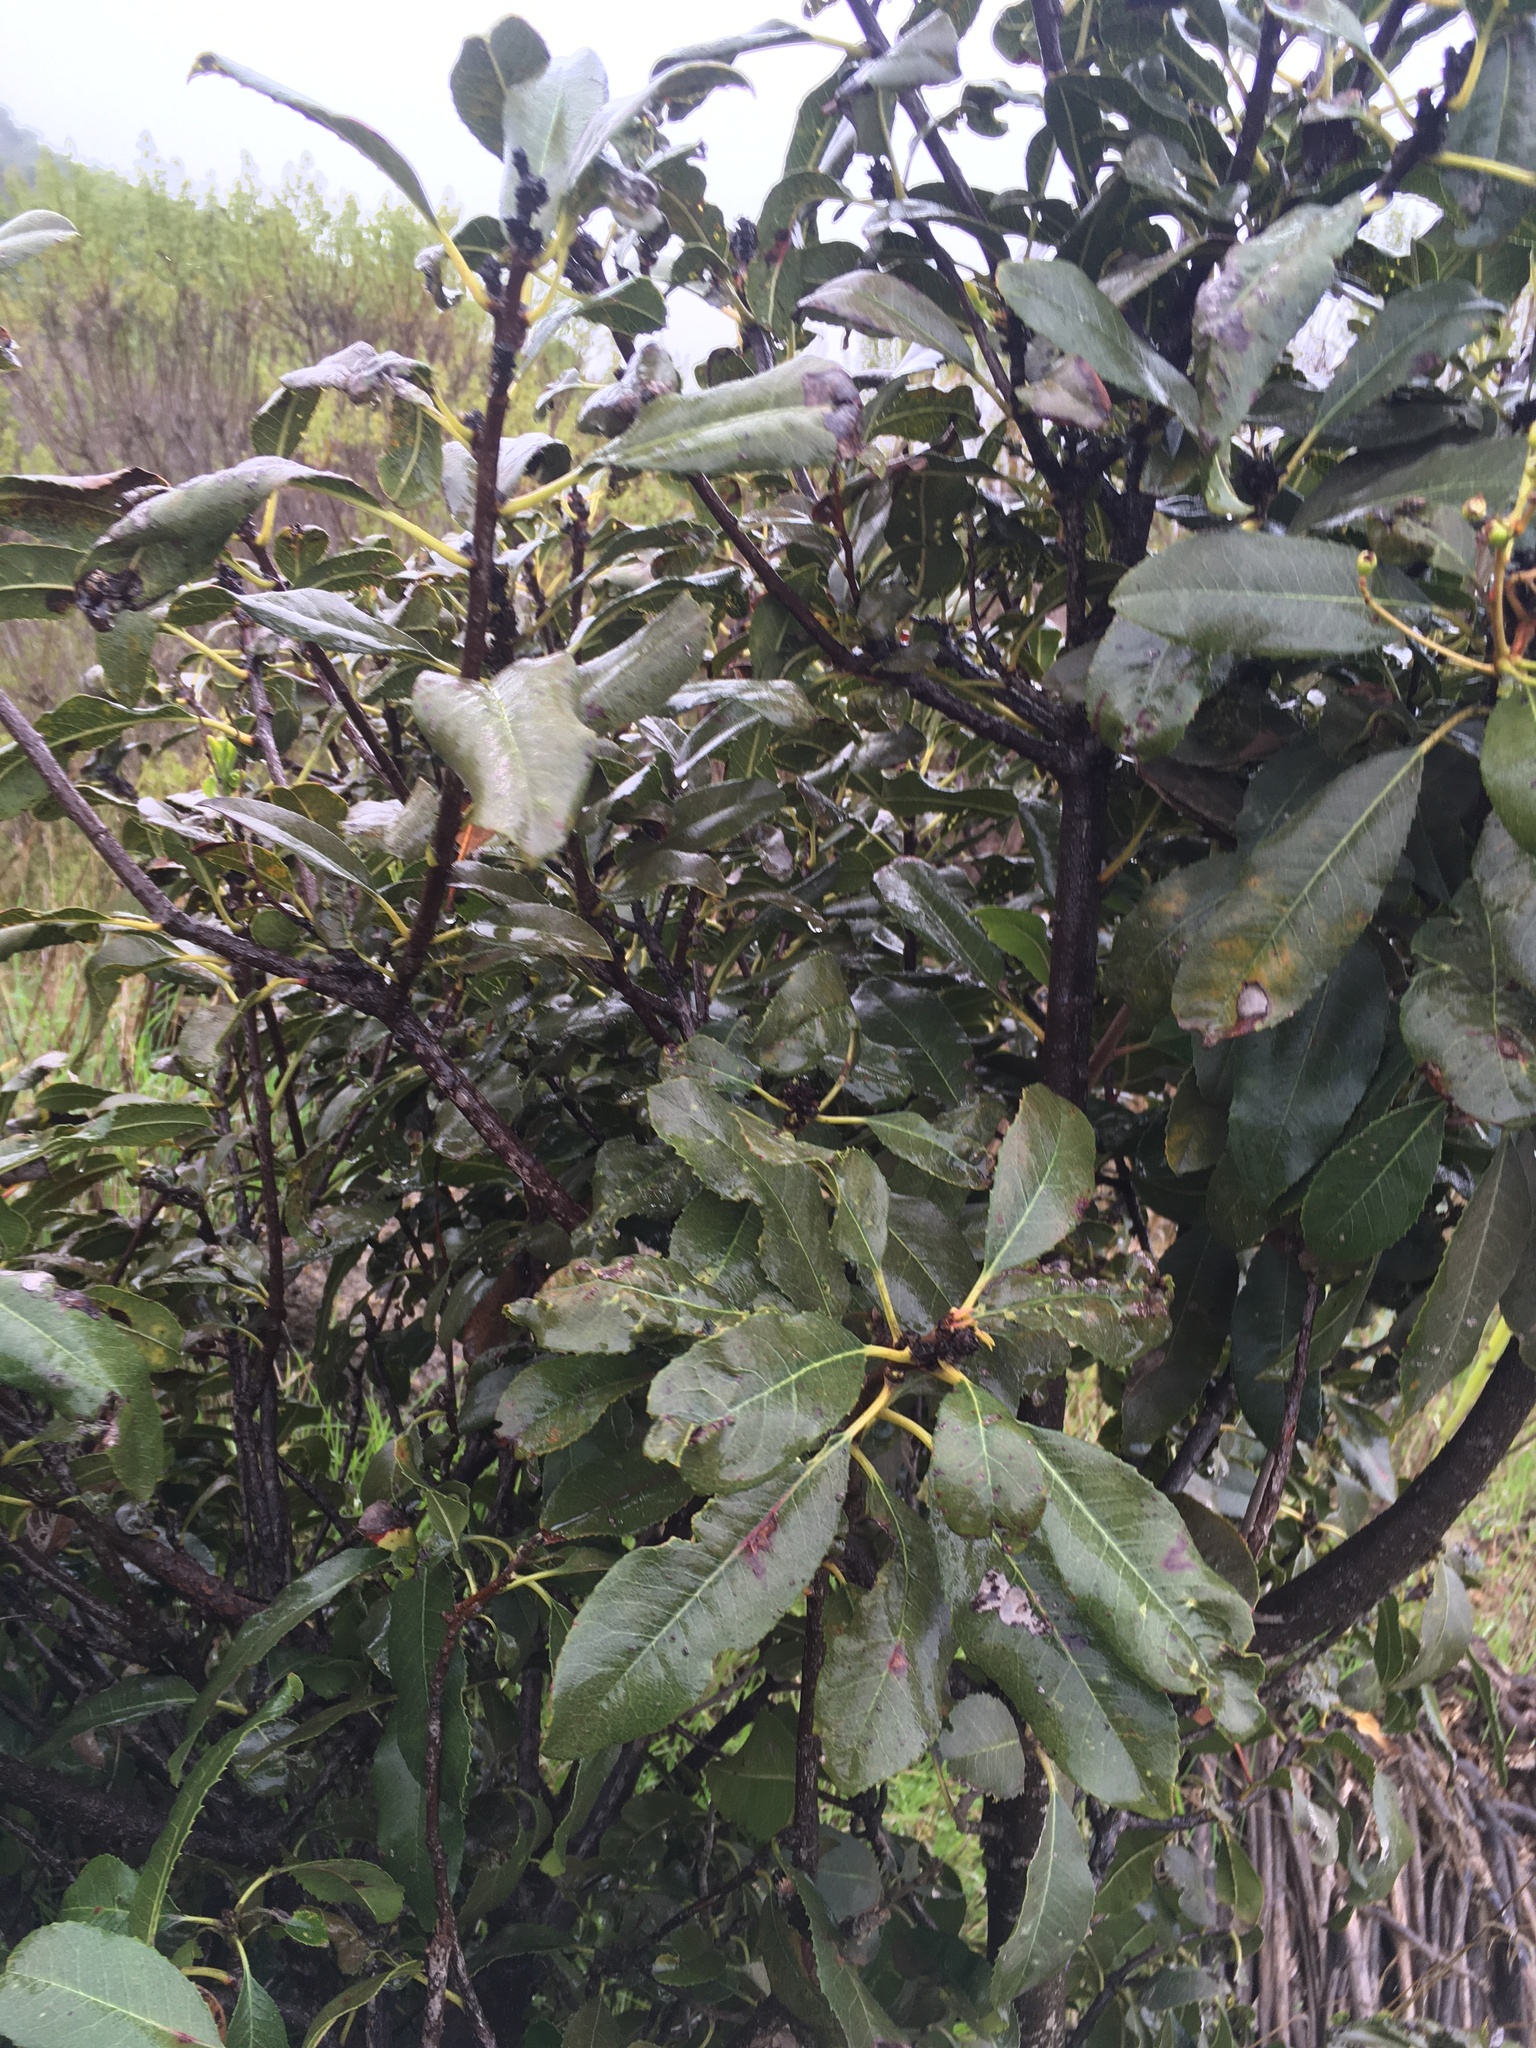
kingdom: Plantae
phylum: Tracheophyta
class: Magnoliopsida
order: Rosales
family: Rosaceae
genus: Heteromeles
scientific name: Heteromeles arbutifolia
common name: California-holly
